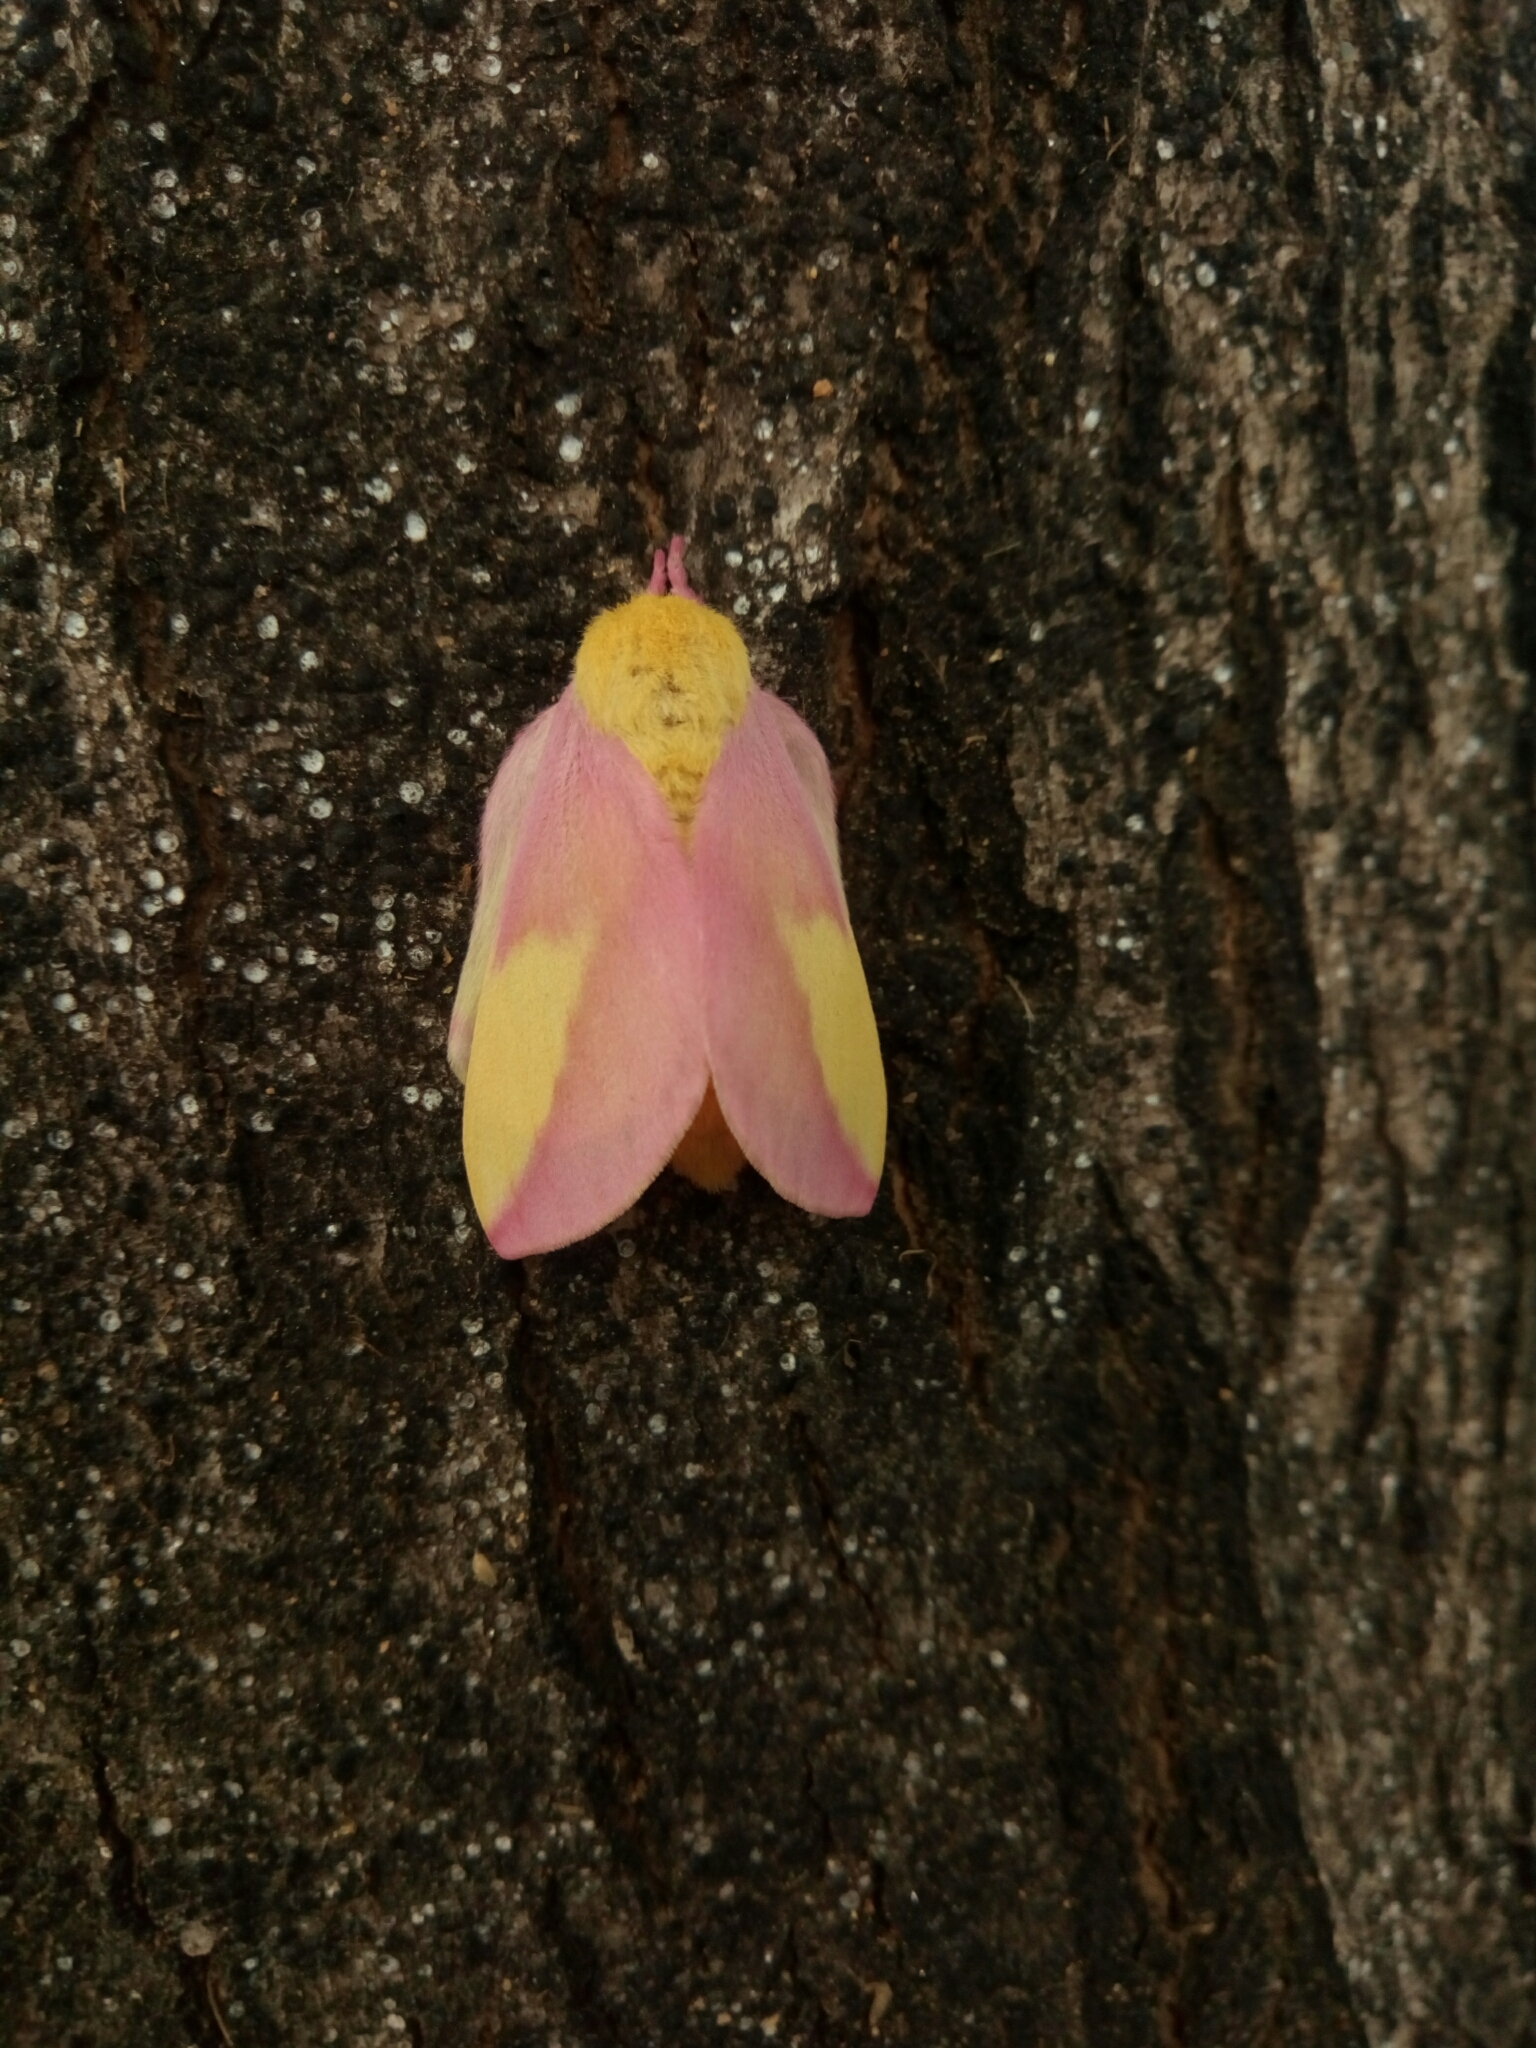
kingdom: Animalia
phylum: Arthropoda
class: Insecta
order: Lepidoptera
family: Saturniidae
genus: Dryocampa
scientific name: Dryocampa rubicunda
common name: Rosy maple moth
